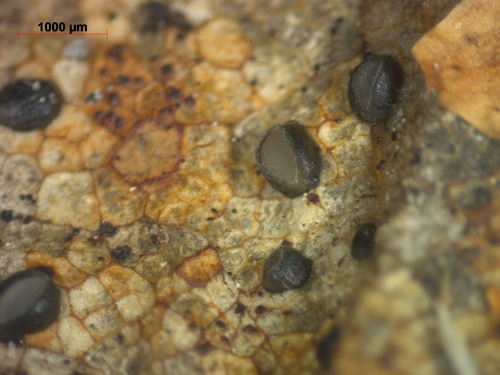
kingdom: Fungi
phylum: Ascomycota
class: Leotiomycetes
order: Rhytismatales
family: Rhytismataceae
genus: Lophodermium
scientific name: Lophodermium
